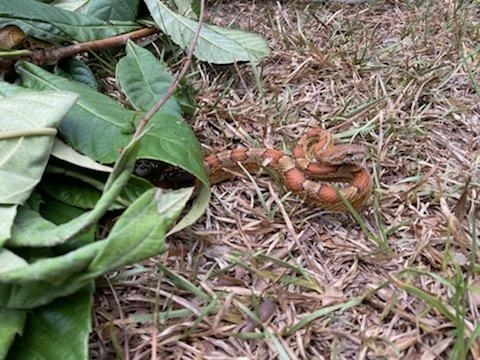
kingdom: Animalia
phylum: Chordata
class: Squamata
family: Colubridae
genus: Pantherophis
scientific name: Pantherophis guttatus
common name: Red cornsnake
